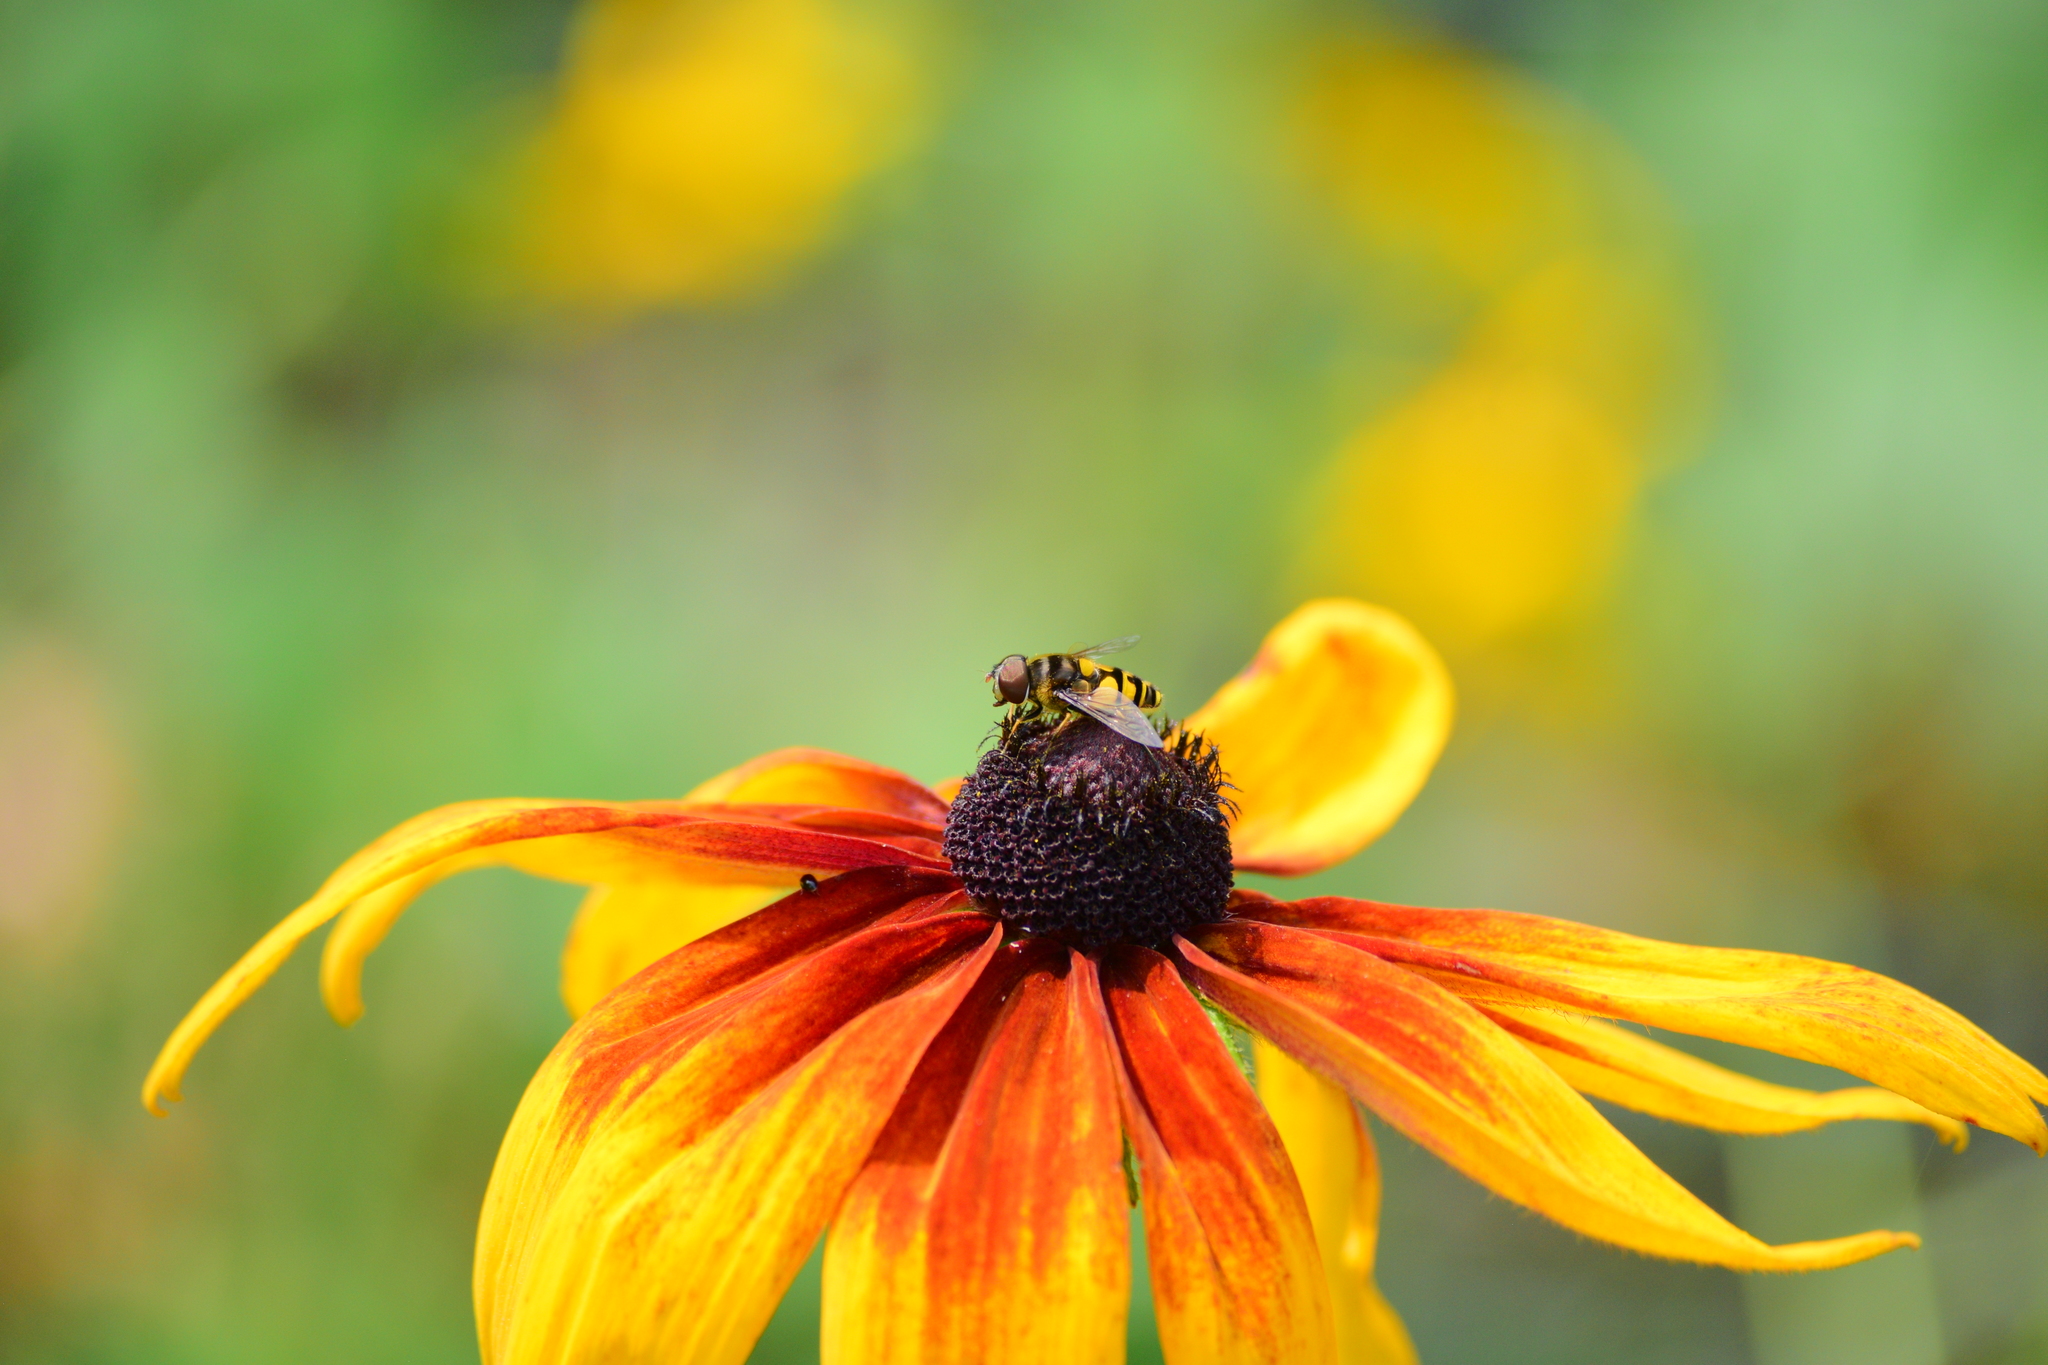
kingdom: Animalia
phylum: Arthropoda
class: Insecta
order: Diptera
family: Syrphidae
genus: Eristalis
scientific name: Eristalis transversa
